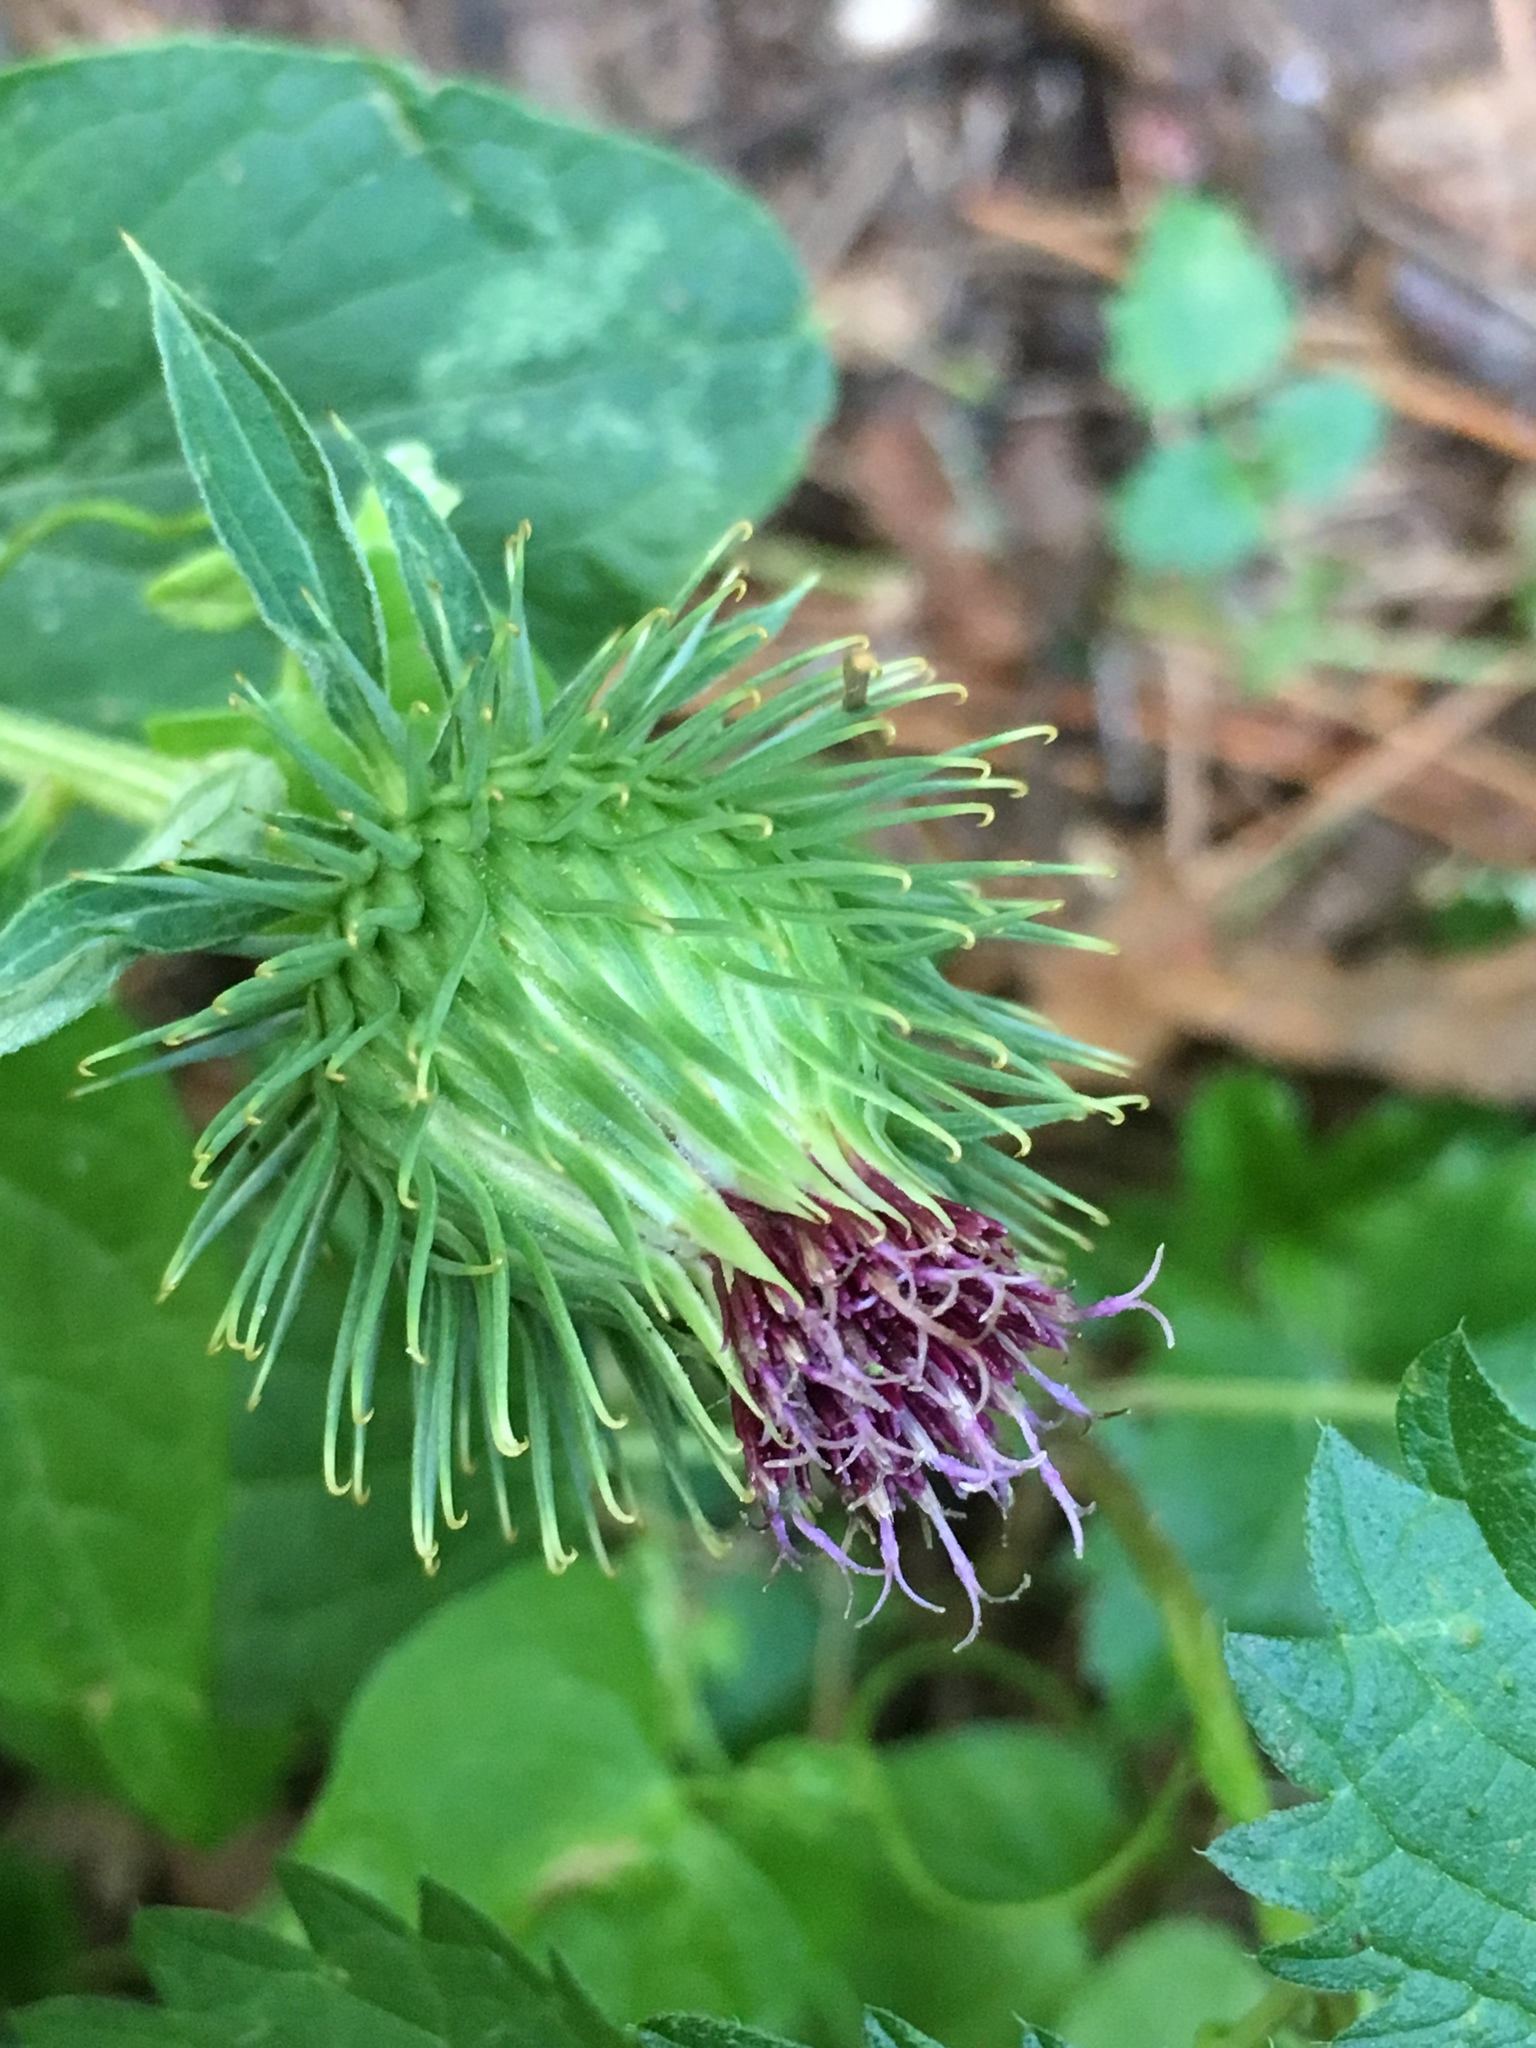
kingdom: Plantae
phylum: Tracheophyta
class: Magnoliopsida
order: Asterales
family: Asteraceae
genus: Arctium
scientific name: Arctium lappa
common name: Greater burdock
